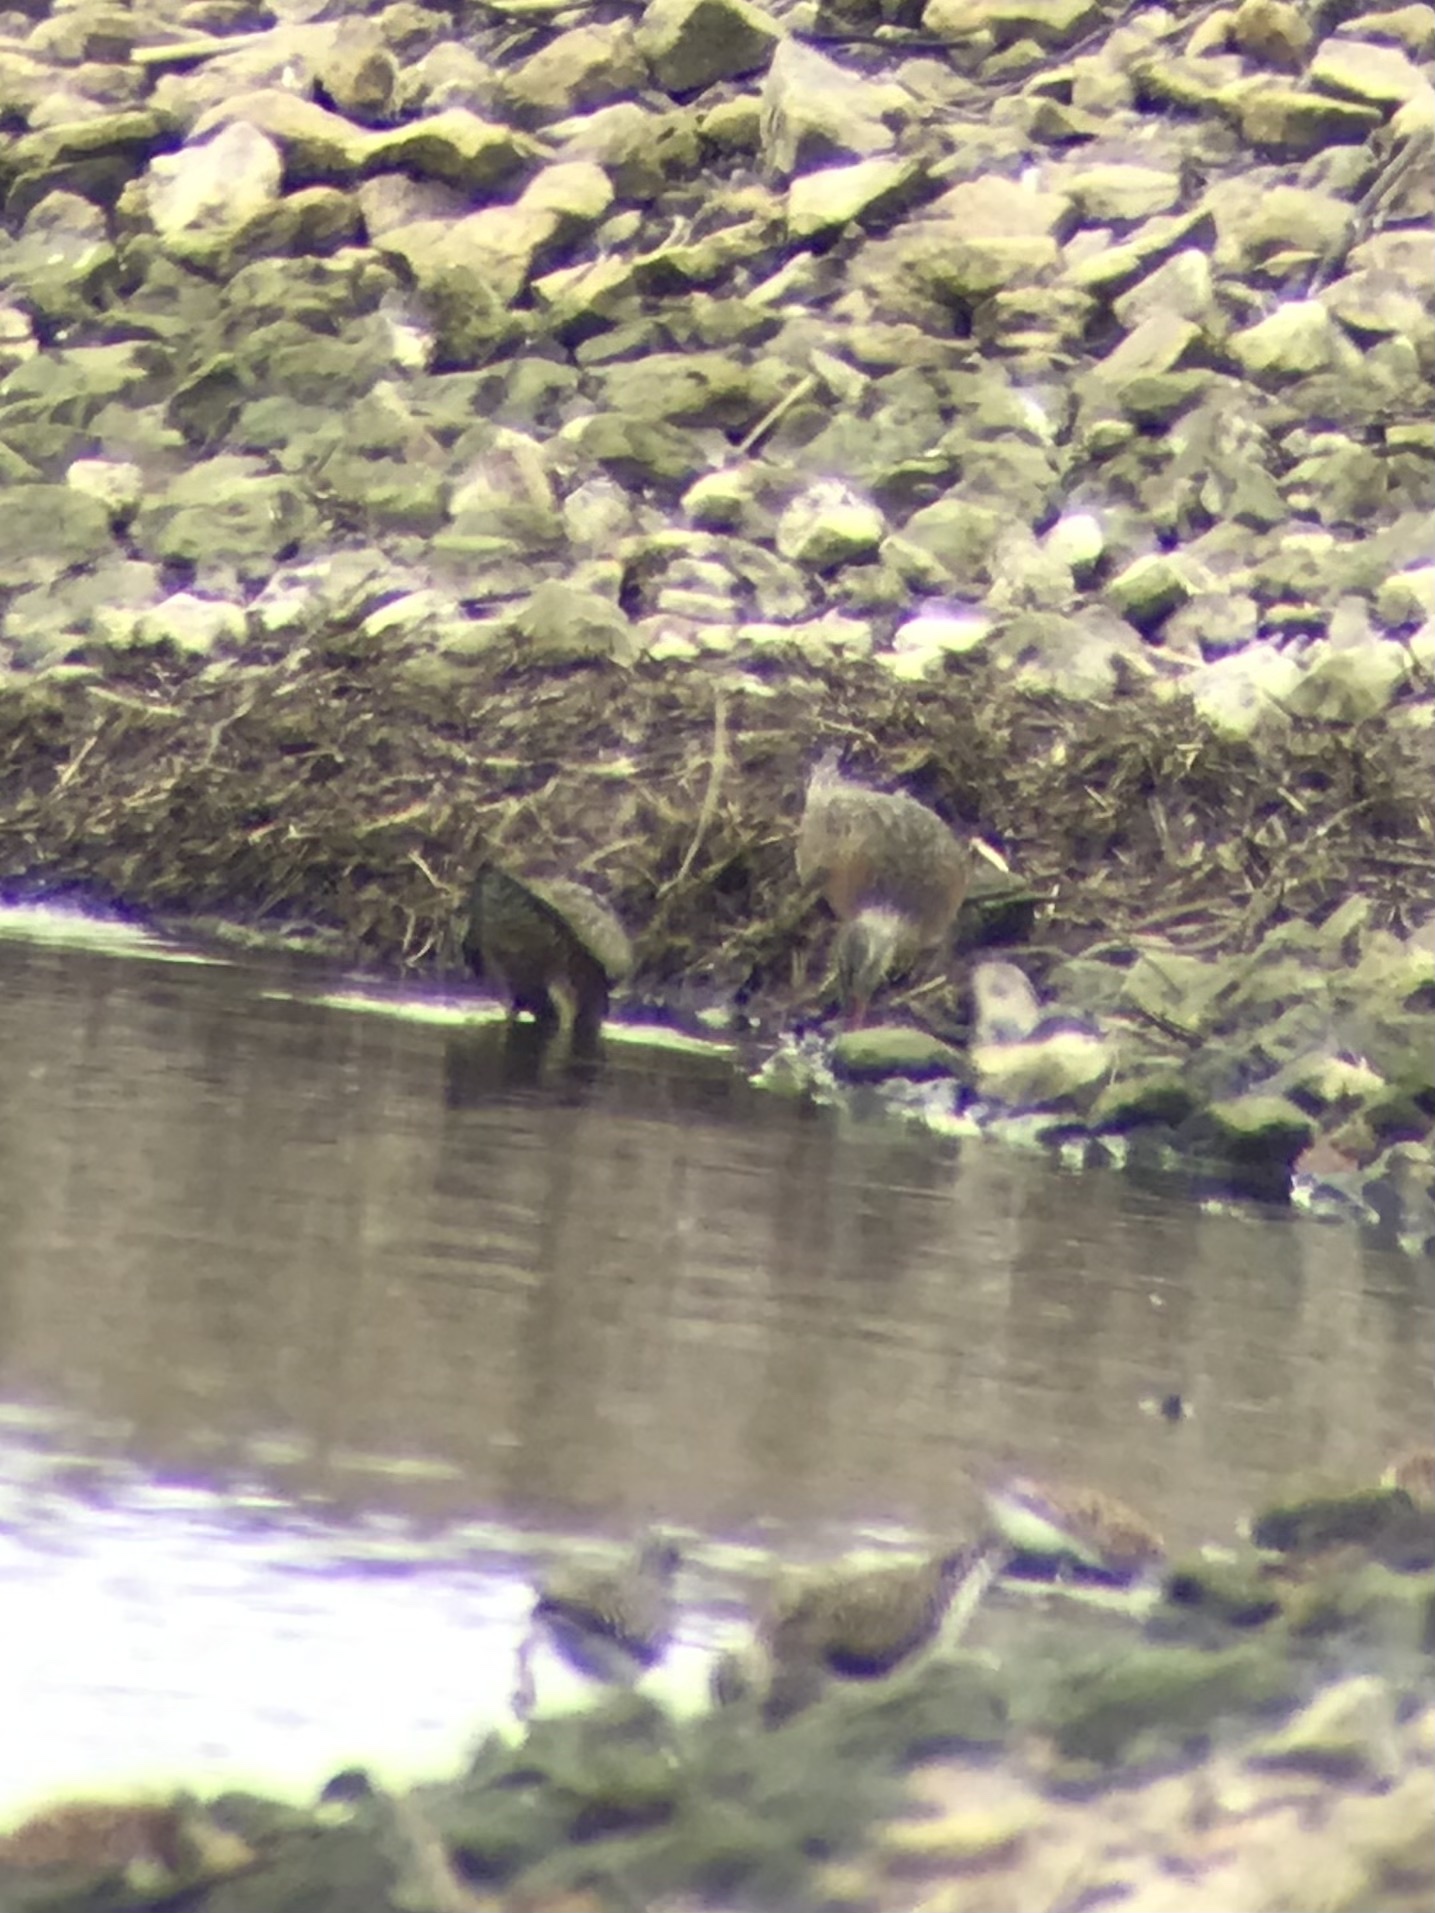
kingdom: Animalia
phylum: Chordata
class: Aves
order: Charadriiformes
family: Scolopacidae
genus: Limosa
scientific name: Limosa haemastica
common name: Hudsonian godwit
